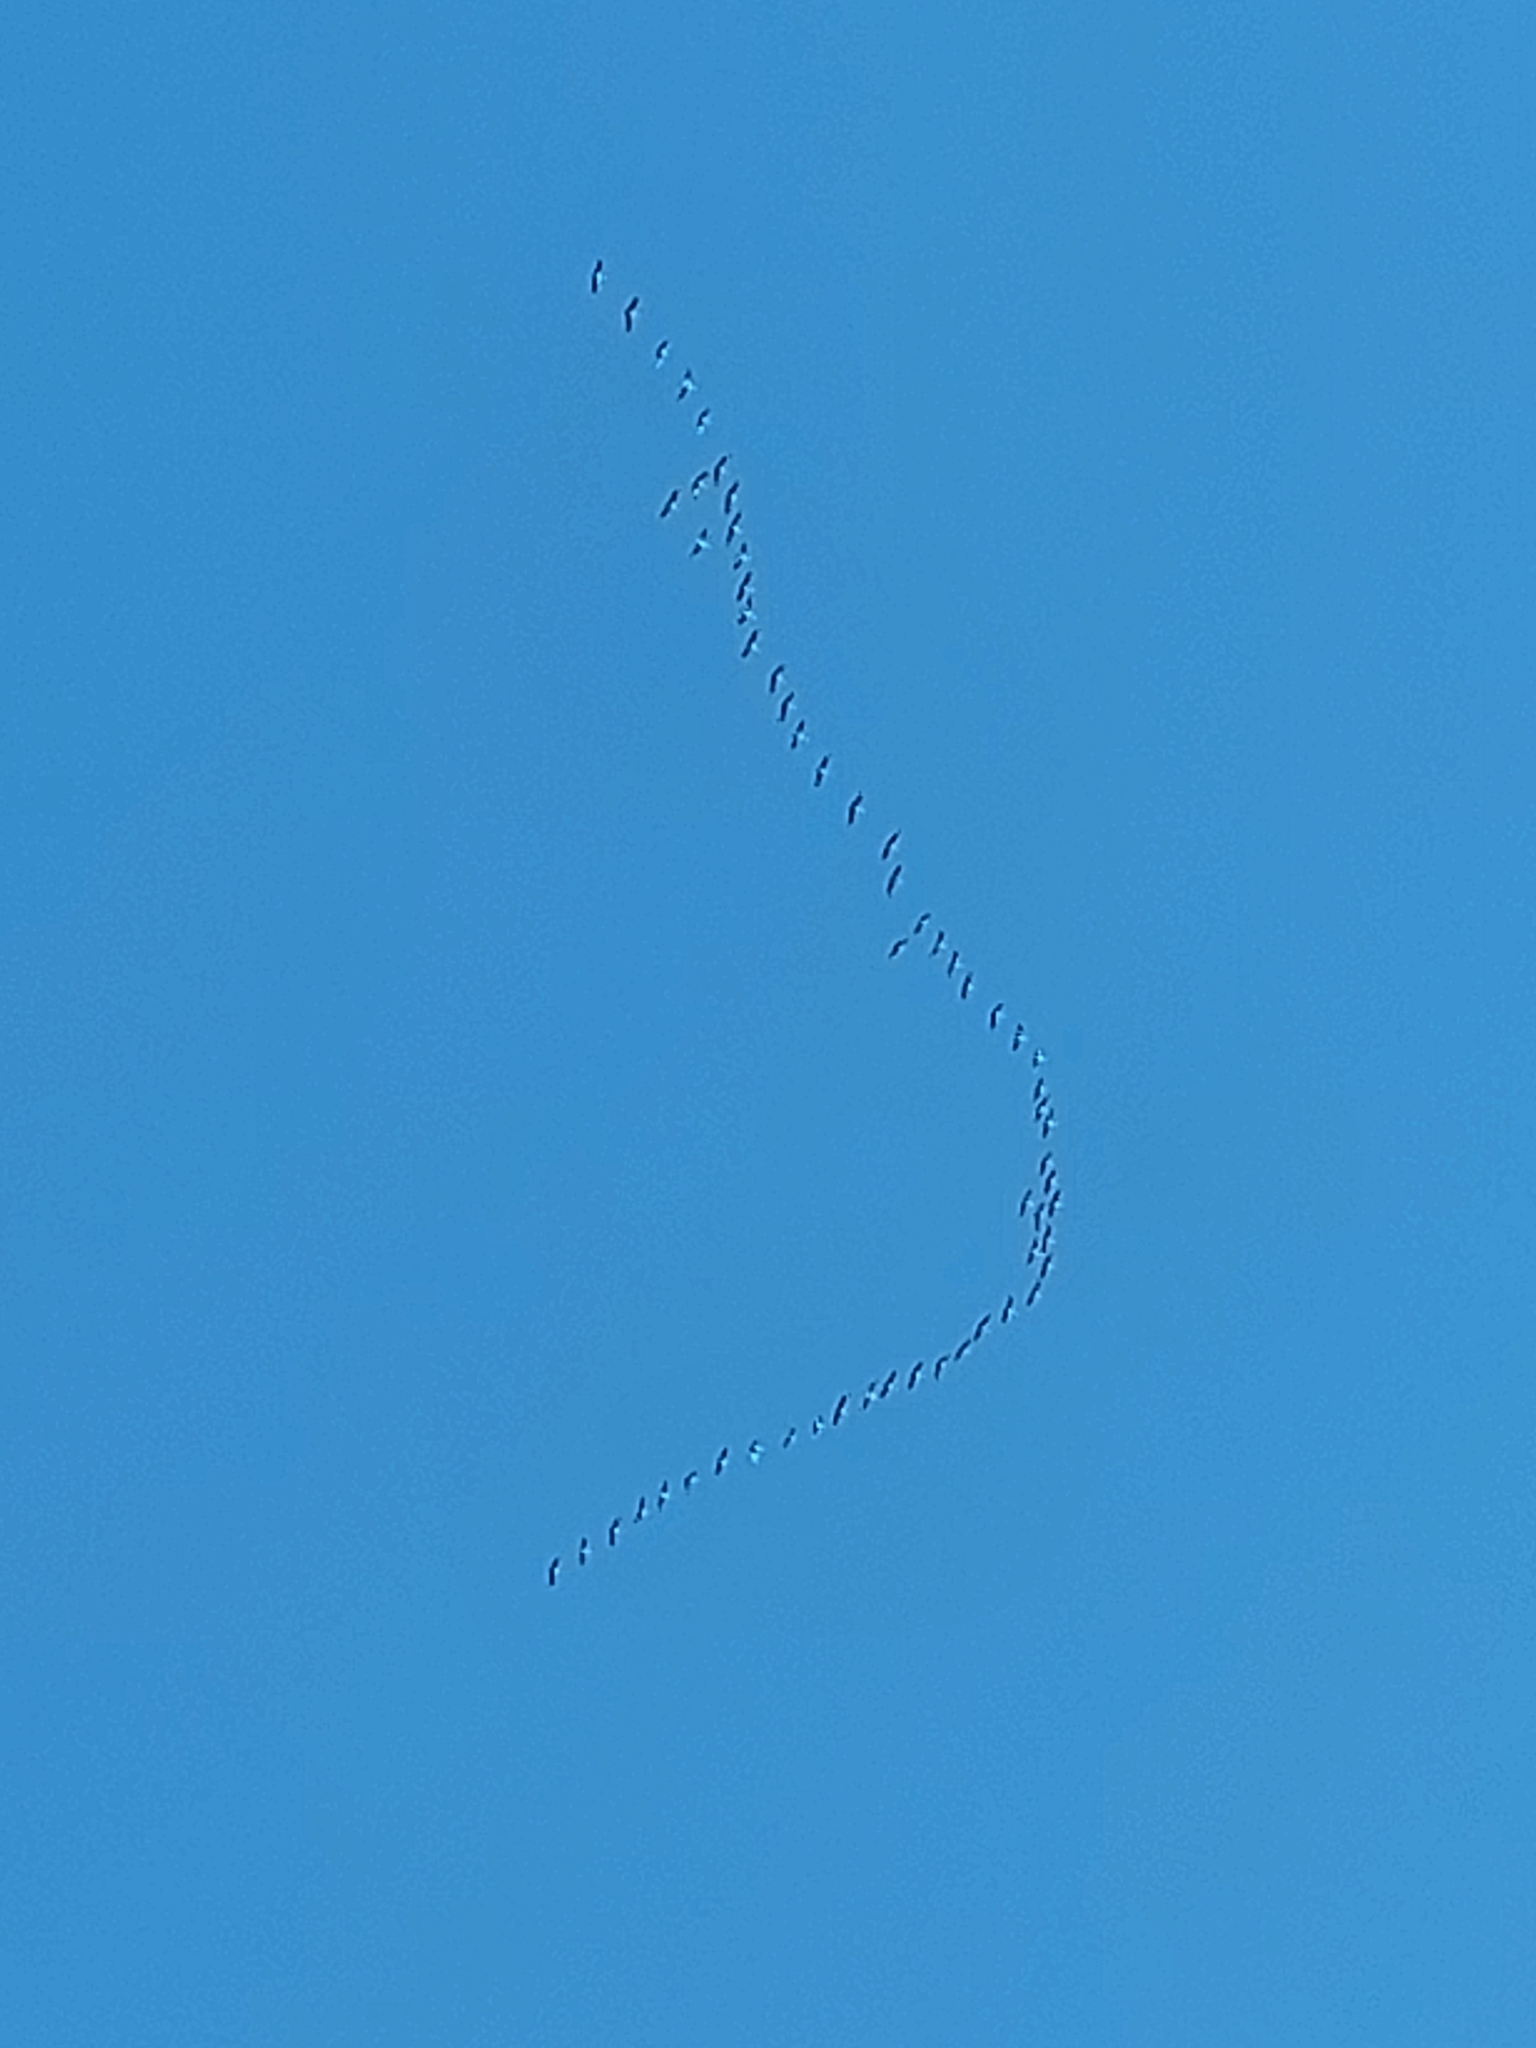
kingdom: Animalia
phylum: Chordata
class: Aves
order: Gruiformes
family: Gruidae
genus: Grus
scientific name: Grus grus
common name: Common crane
